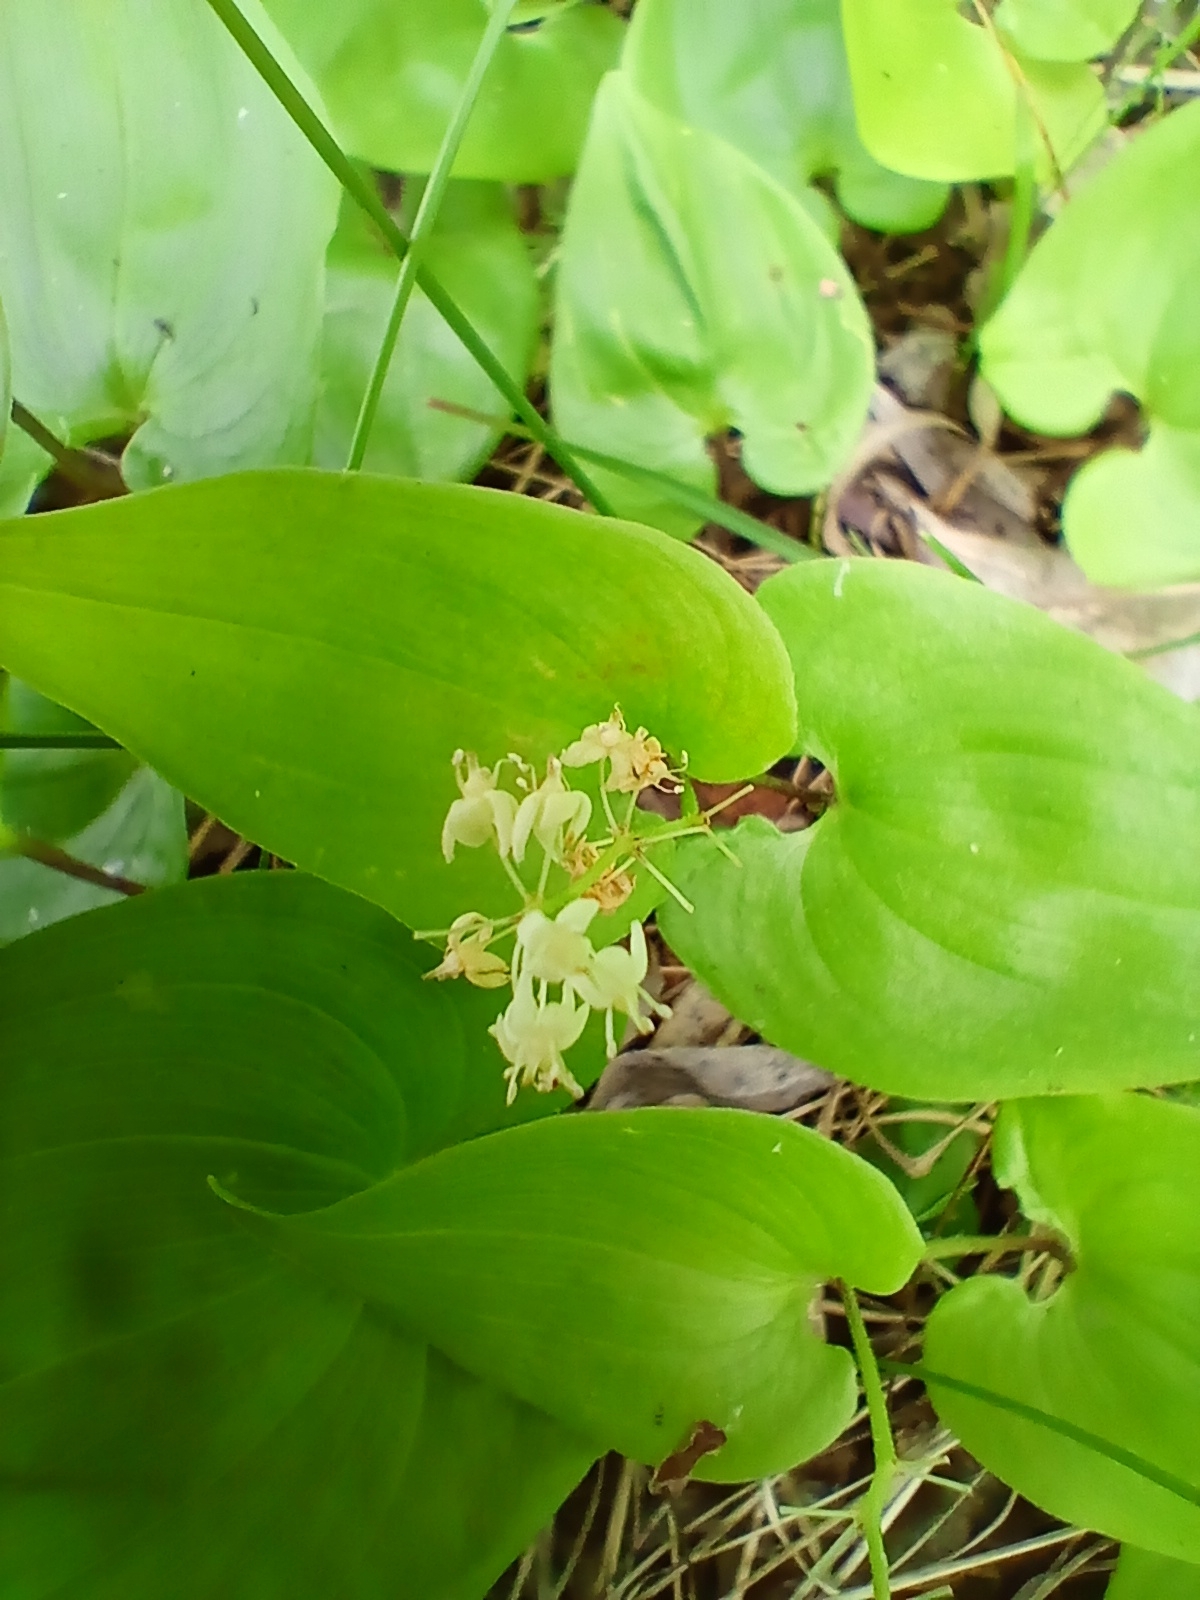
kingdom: Plantae
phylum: Tracheophyta
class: Liliopsida
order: Asparagales
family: Asparagaceae
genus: Maianthemum
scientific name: Maianthemum bifolium
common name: May lily
